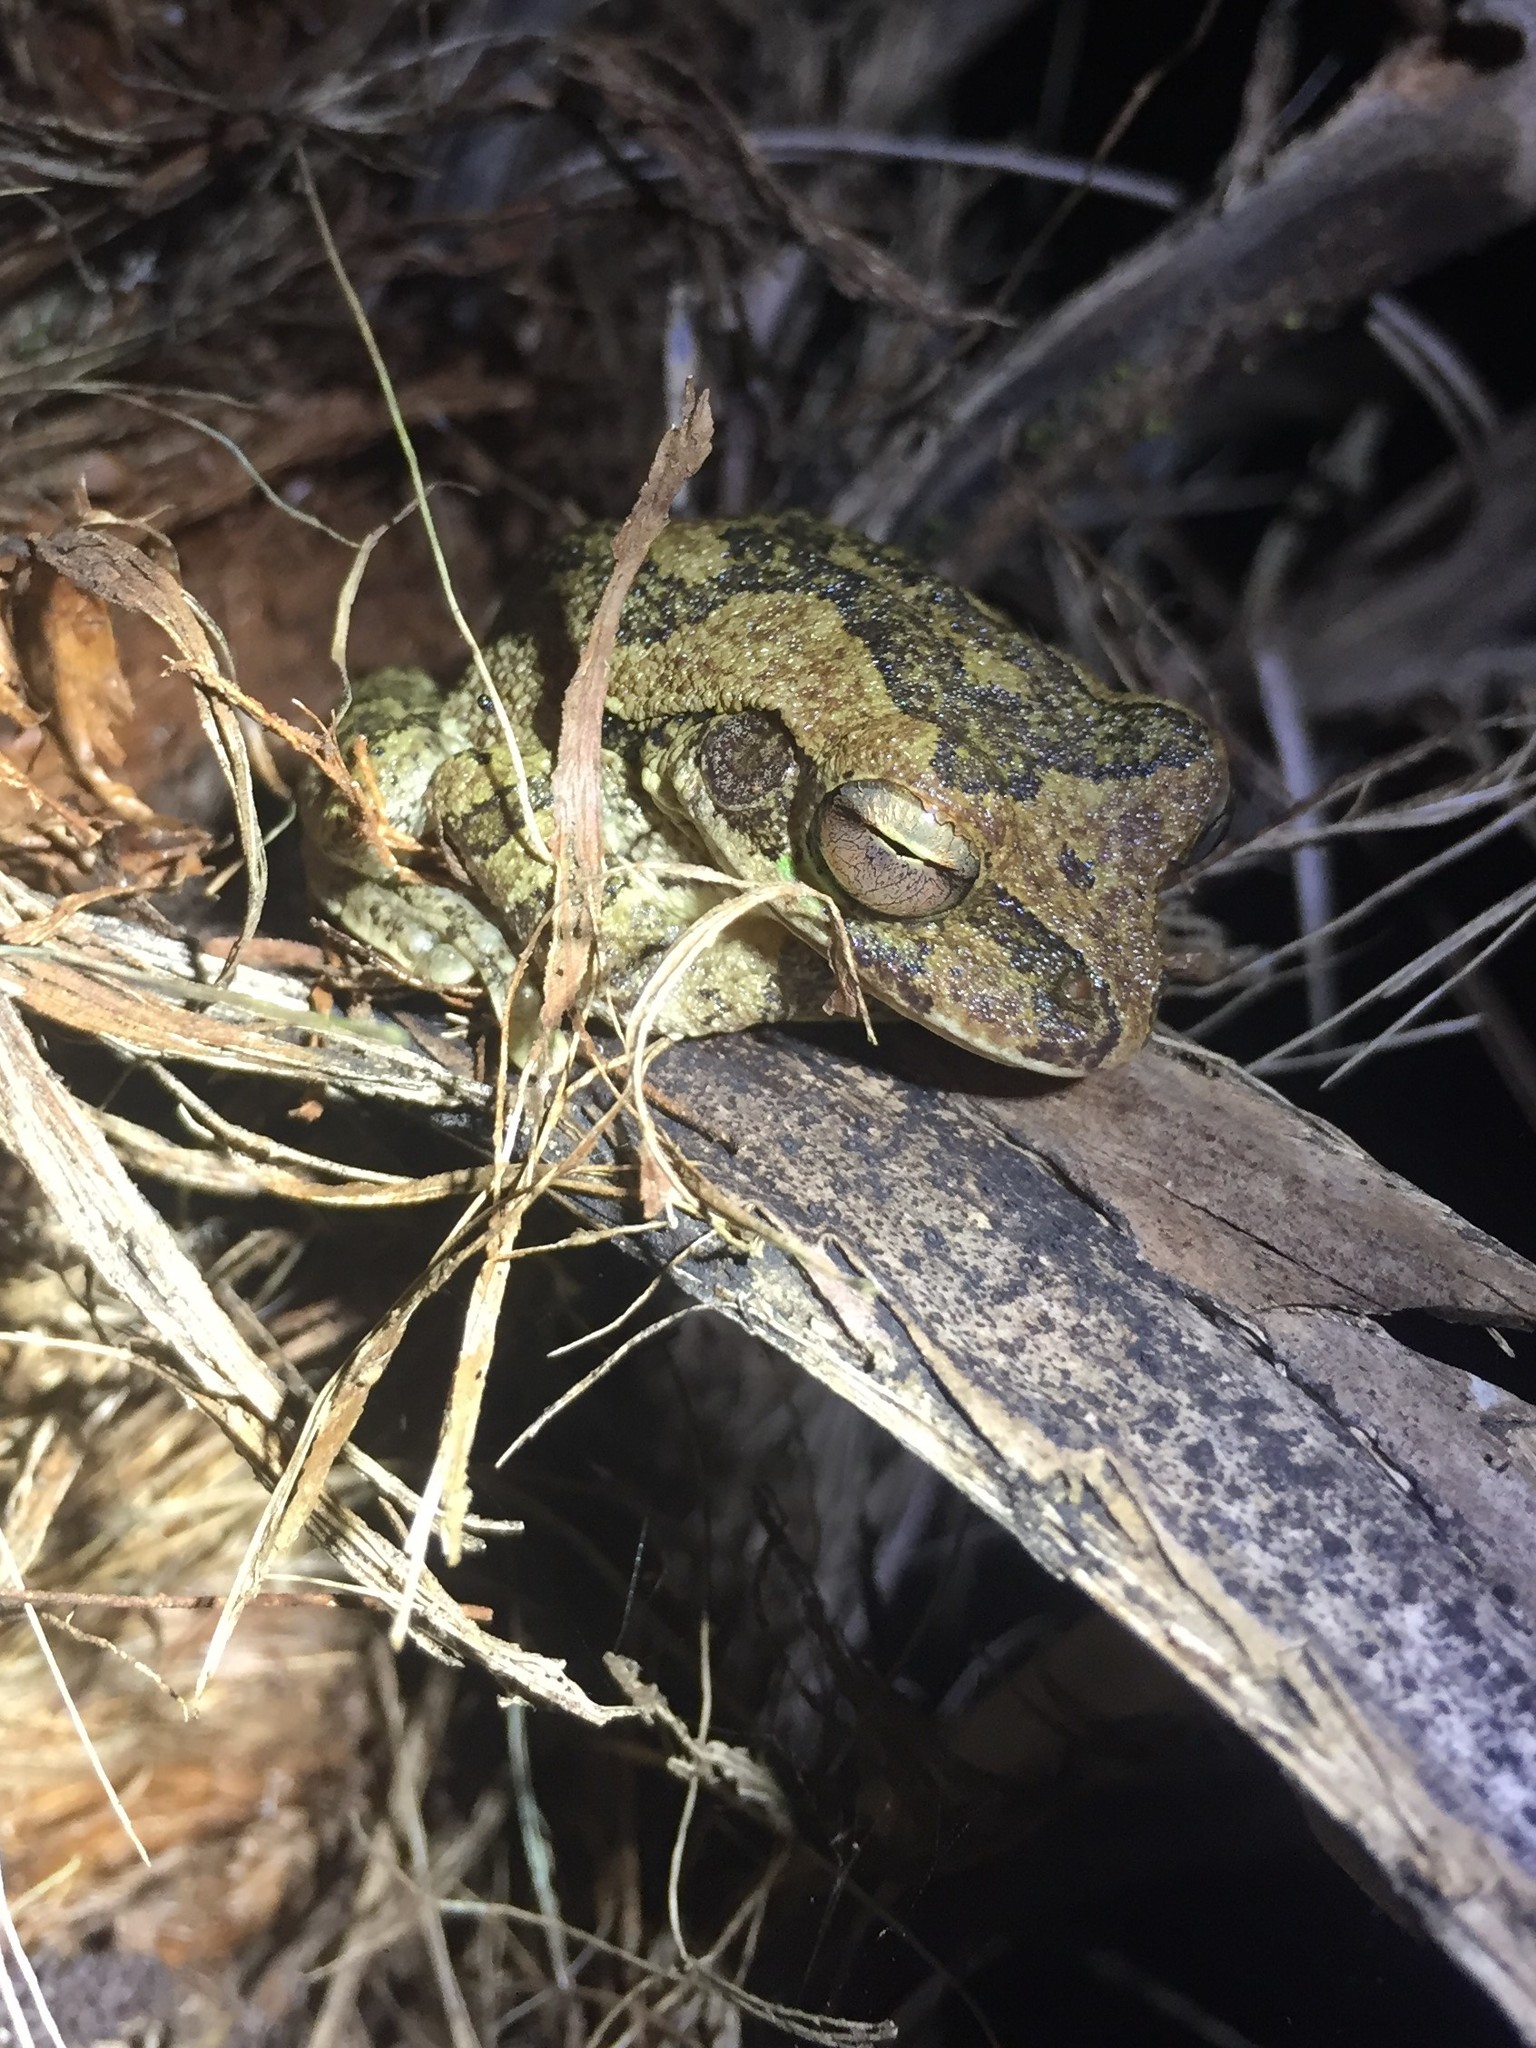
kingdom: Animalia
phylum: Chordata
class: Amphibia
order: Anura
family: Hylidae
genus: Smilisca
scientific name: Smilisca baudinii
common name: Mexican smilisca
